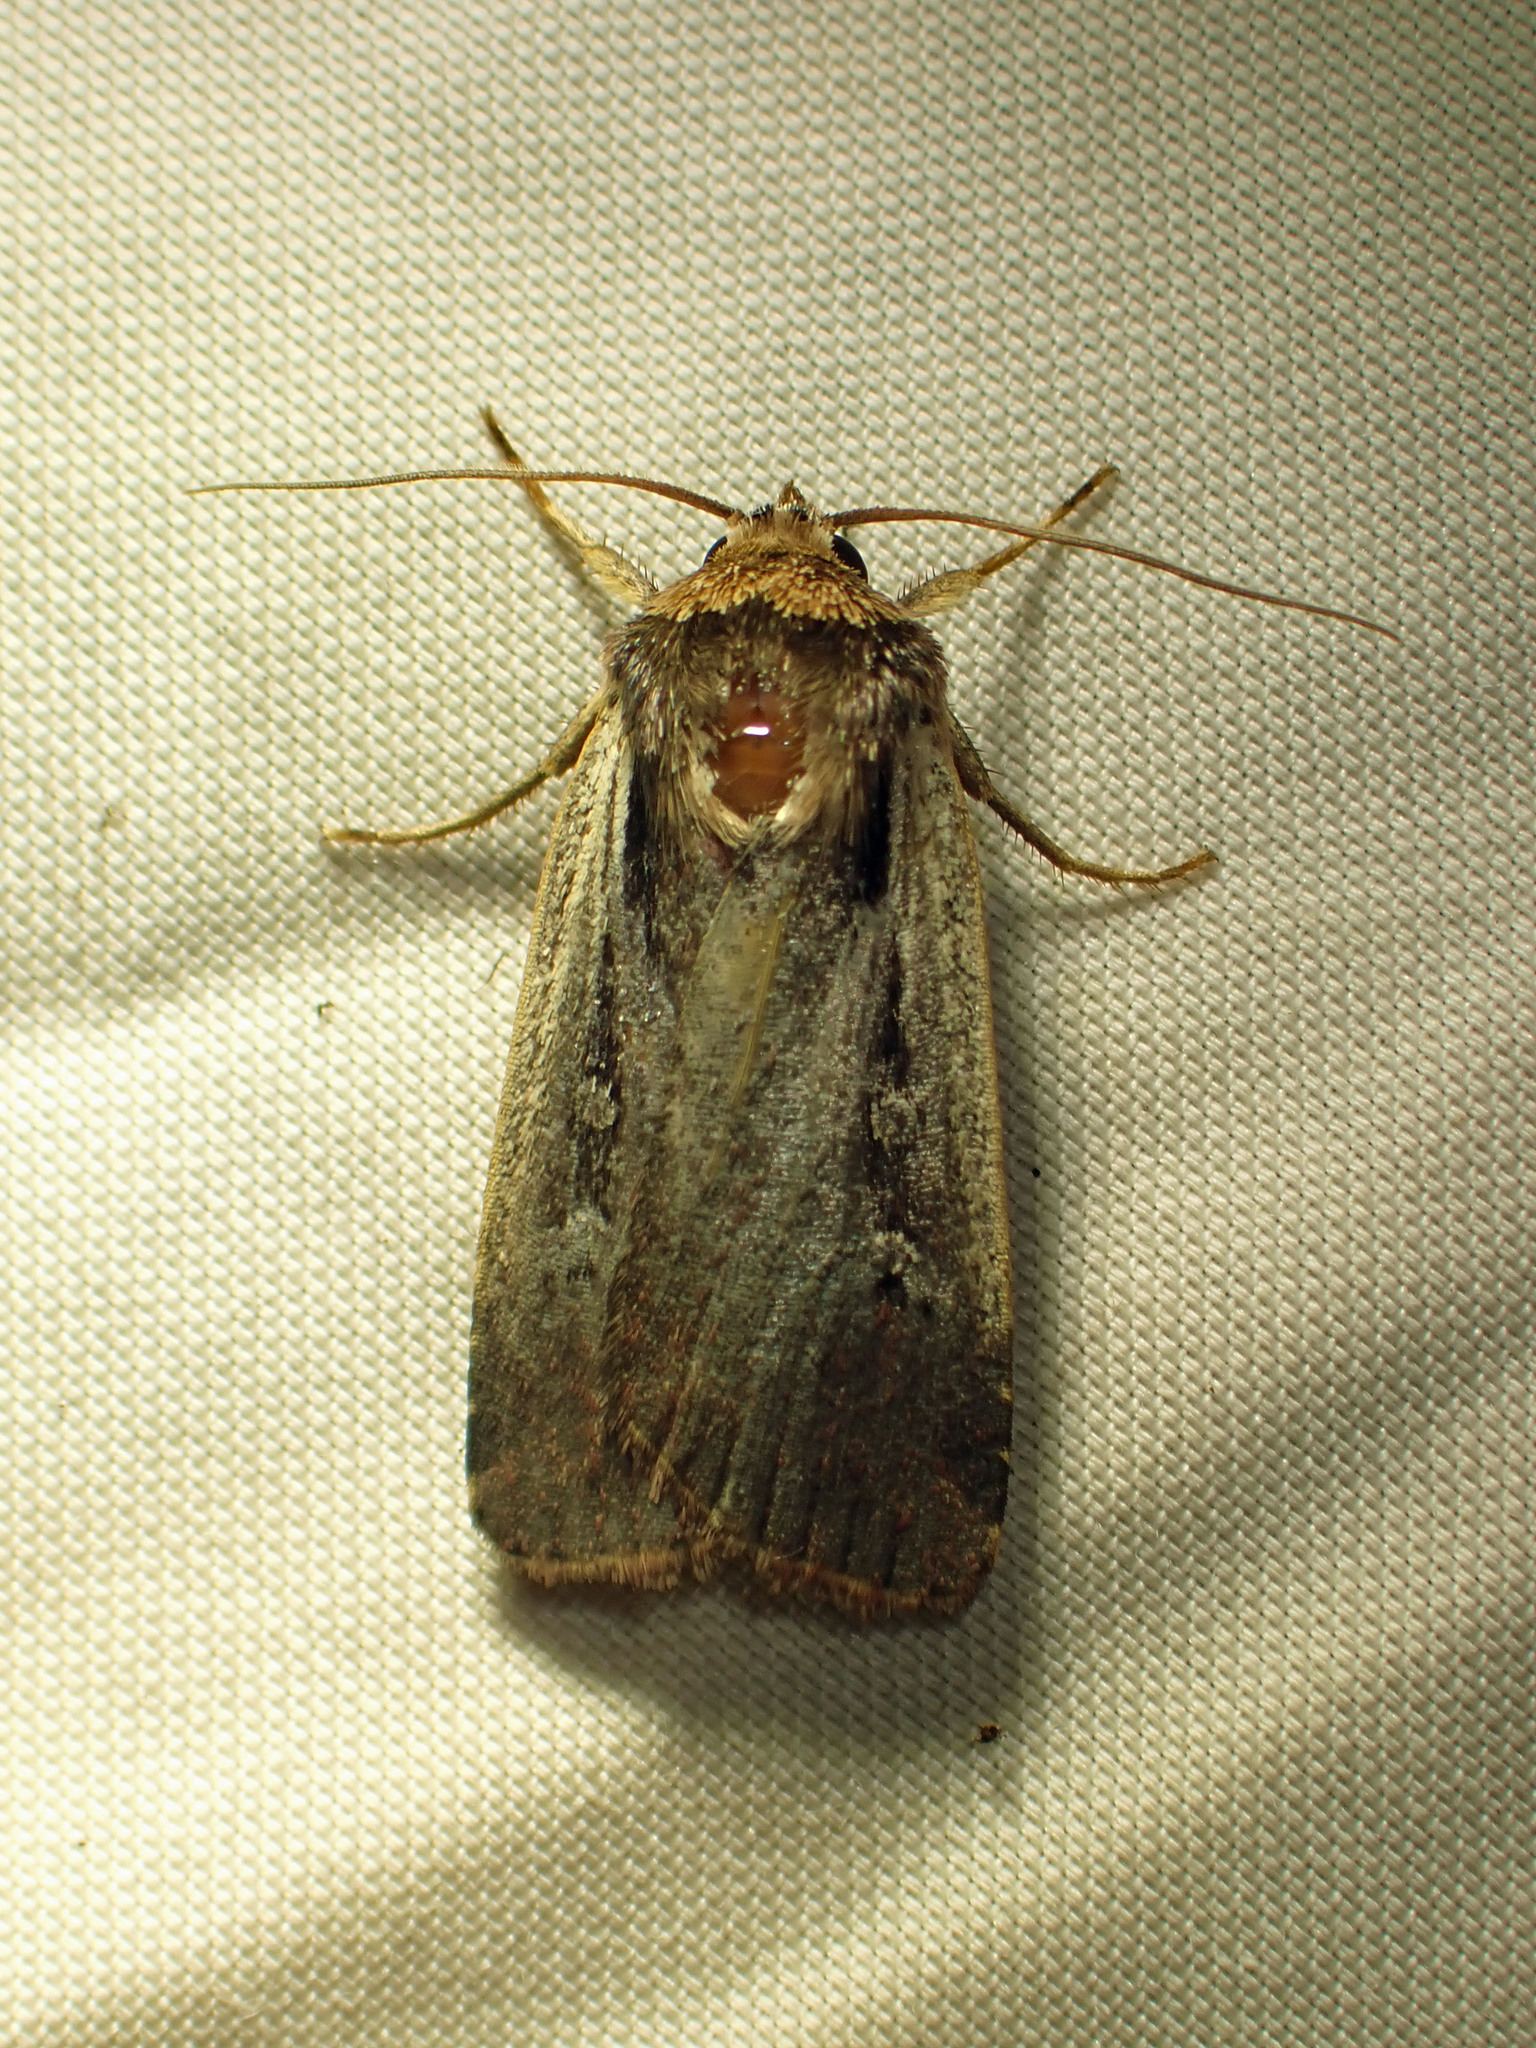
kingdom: Animalia
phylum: Arthropoda
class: Insecta
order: Lepidoptera
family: Noctuidae
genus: Ochropleura
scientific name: Ochropleura implecta
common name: Flame-shouldered dart
